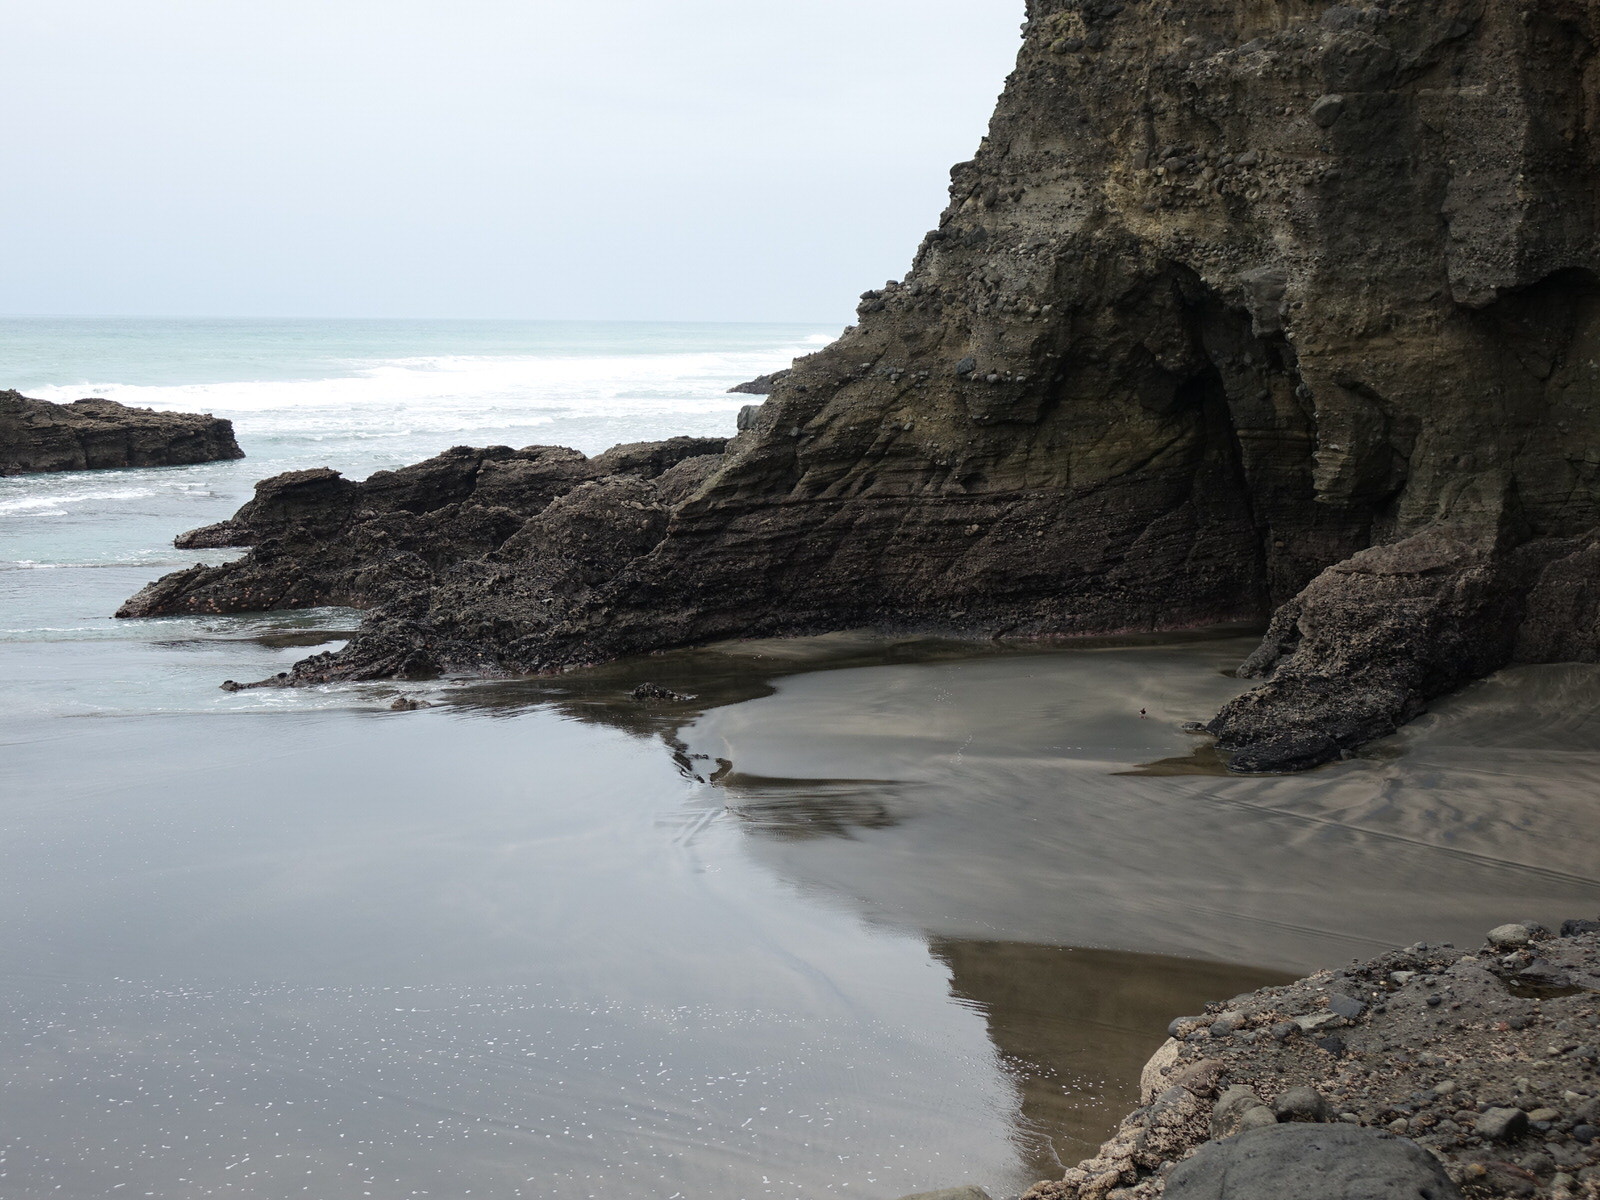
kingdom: Animalia
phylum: Chordata
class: Aves
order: Charadriiformes
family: Haematopodidae
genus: Haematopus
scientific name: Haematopus unicolor
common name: Variable oystercatcher
